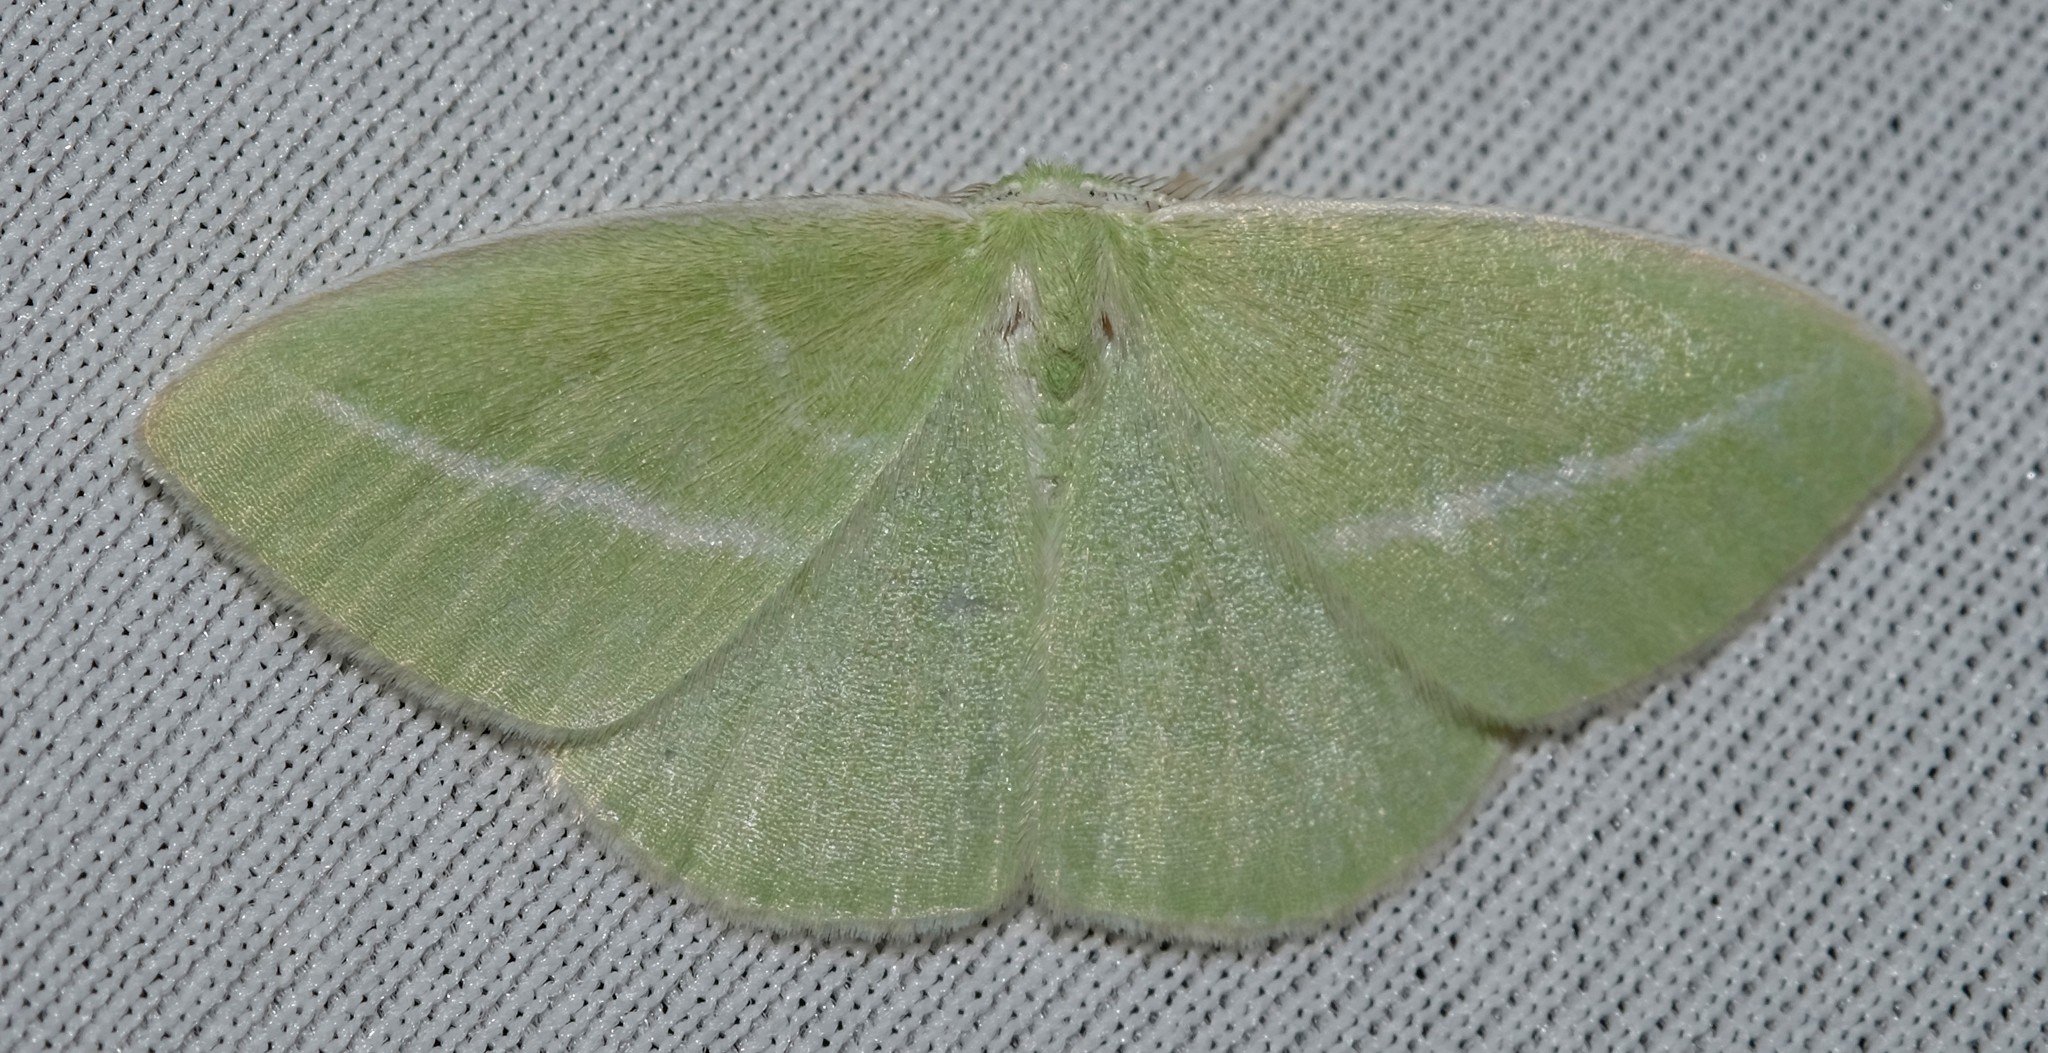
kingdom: Animalia
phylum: Arthropoda
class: Insecta
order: Lepidoptera
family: Geometridae
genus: Iulops
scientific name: Iulops argocrana
